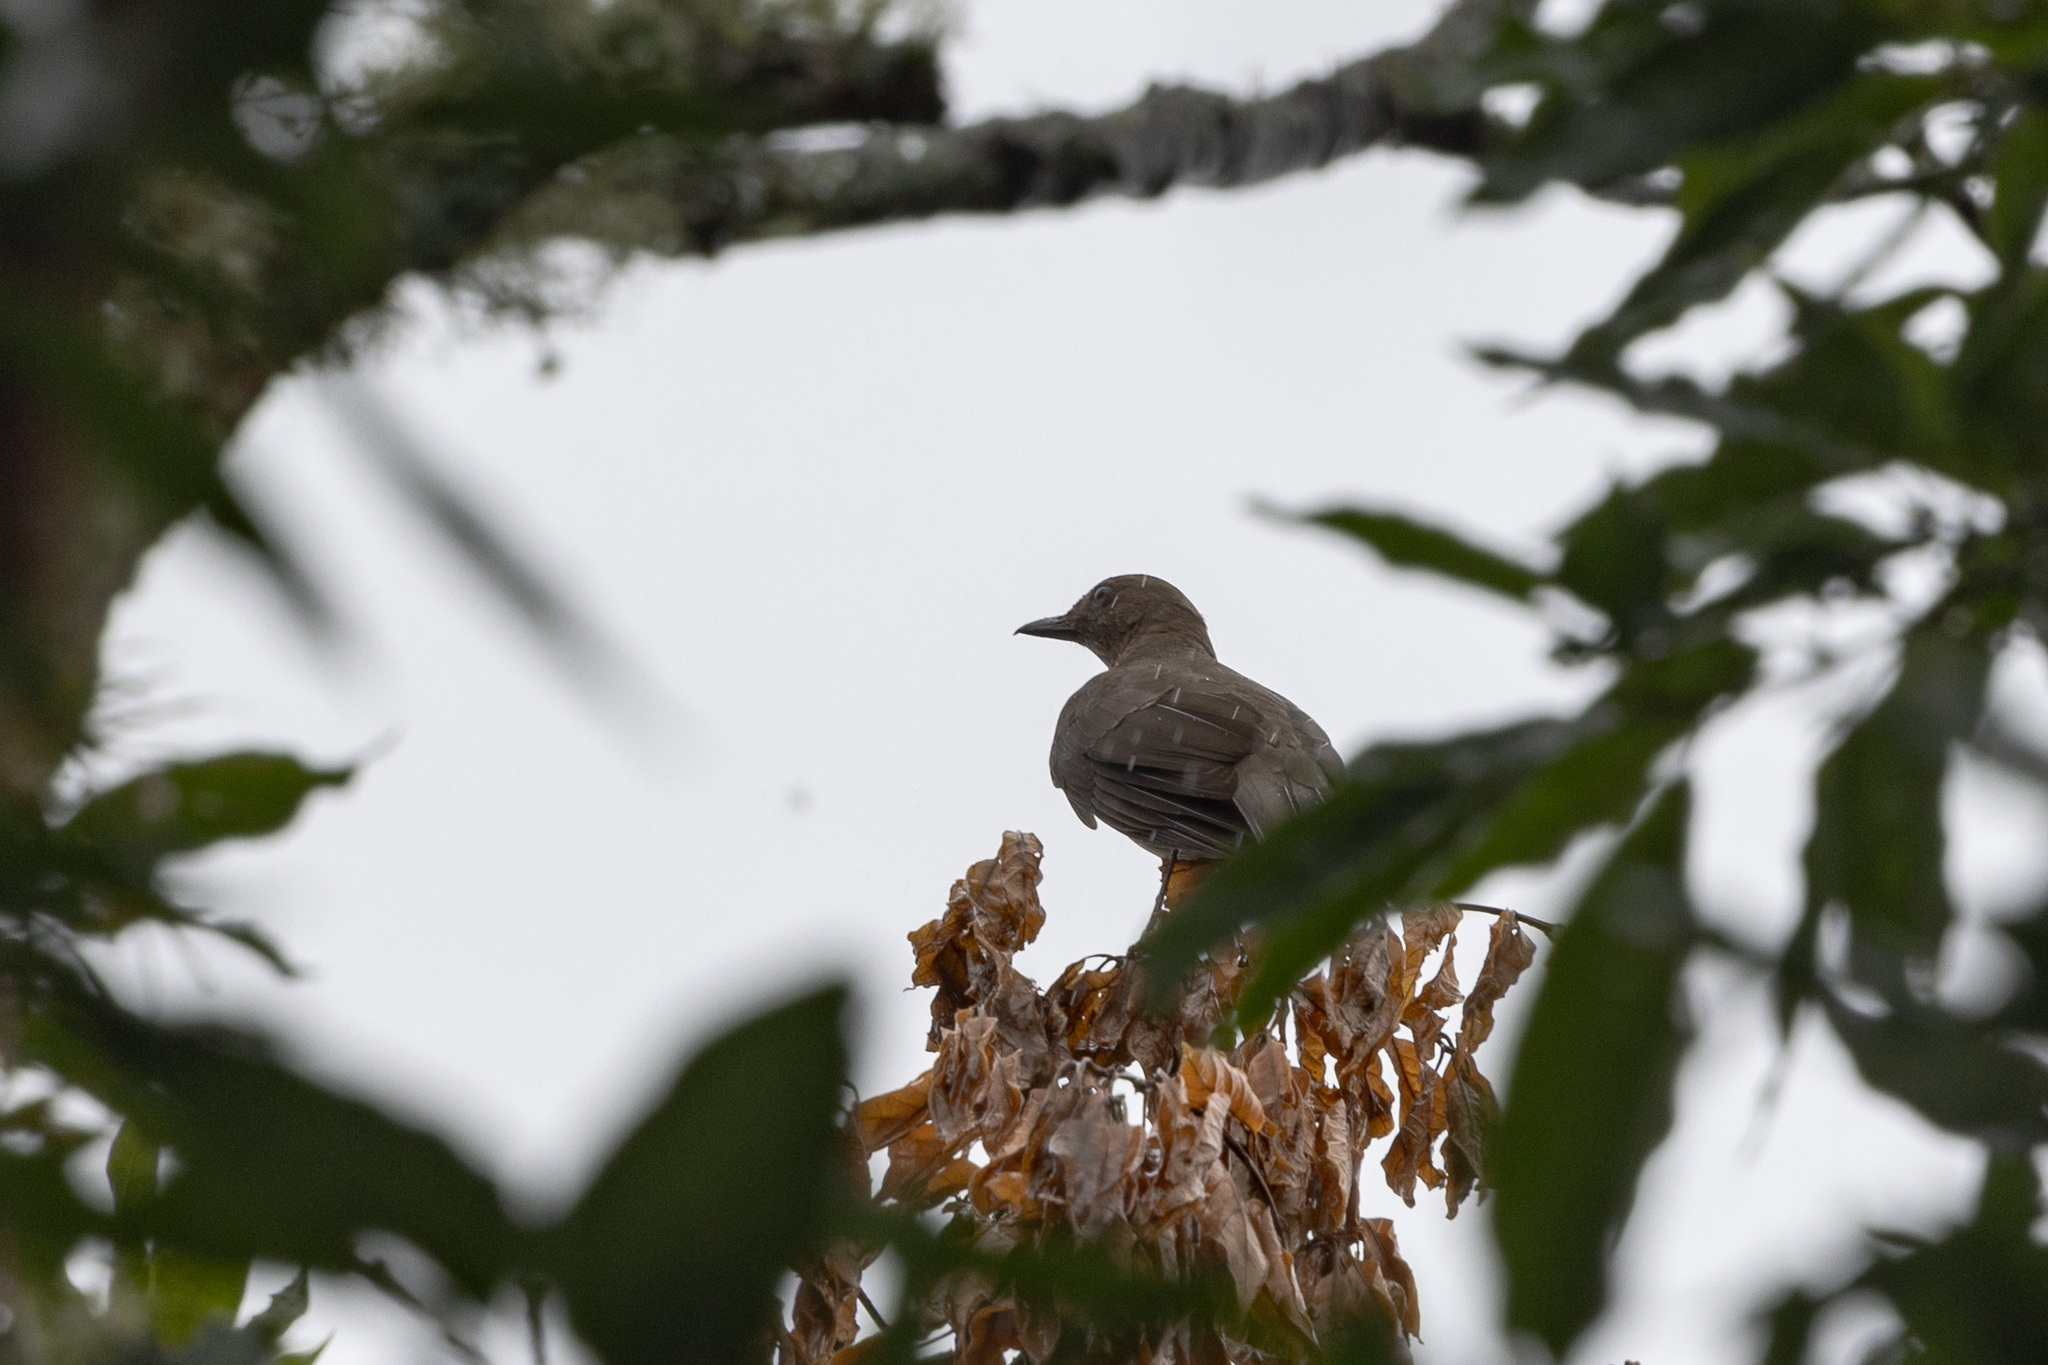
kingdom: Animalia
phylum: Chordata
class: Aves
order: Passeriformes
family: Turdidae
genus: Turdus
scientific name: Turdus plebejus
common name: Mountain thrush
